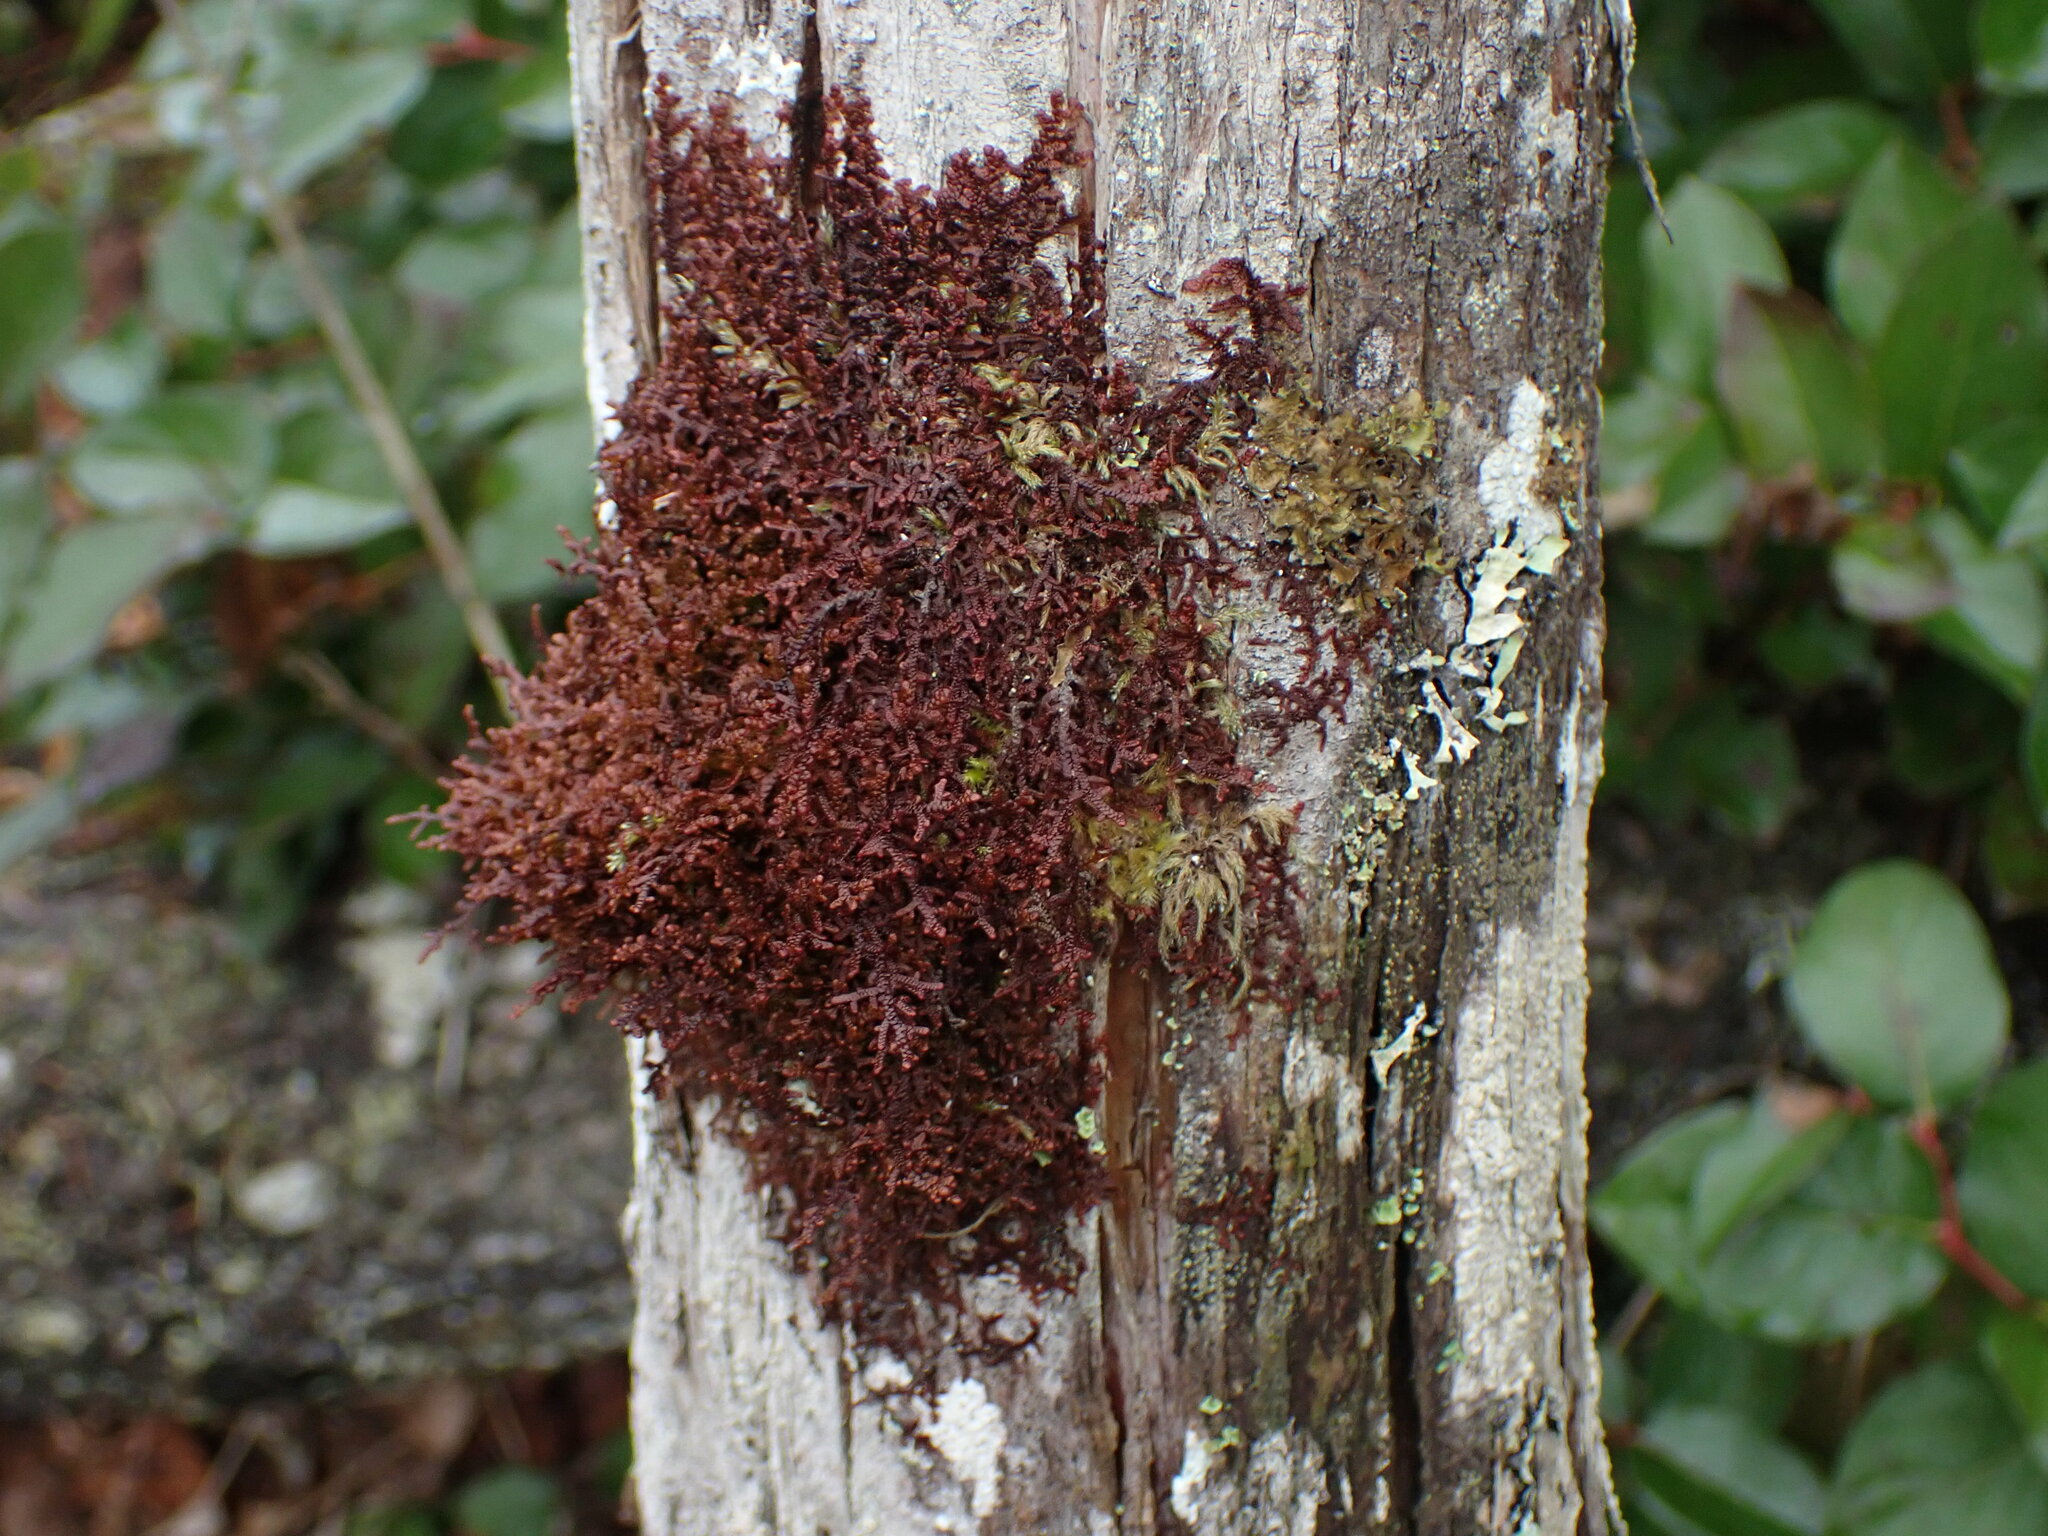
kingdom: Plantae
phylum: Marchantiophyta
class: Jungermanniopsida
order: Porellales
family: Frullaniaceae
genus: Frullania
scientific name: Frullania nisquallensis
